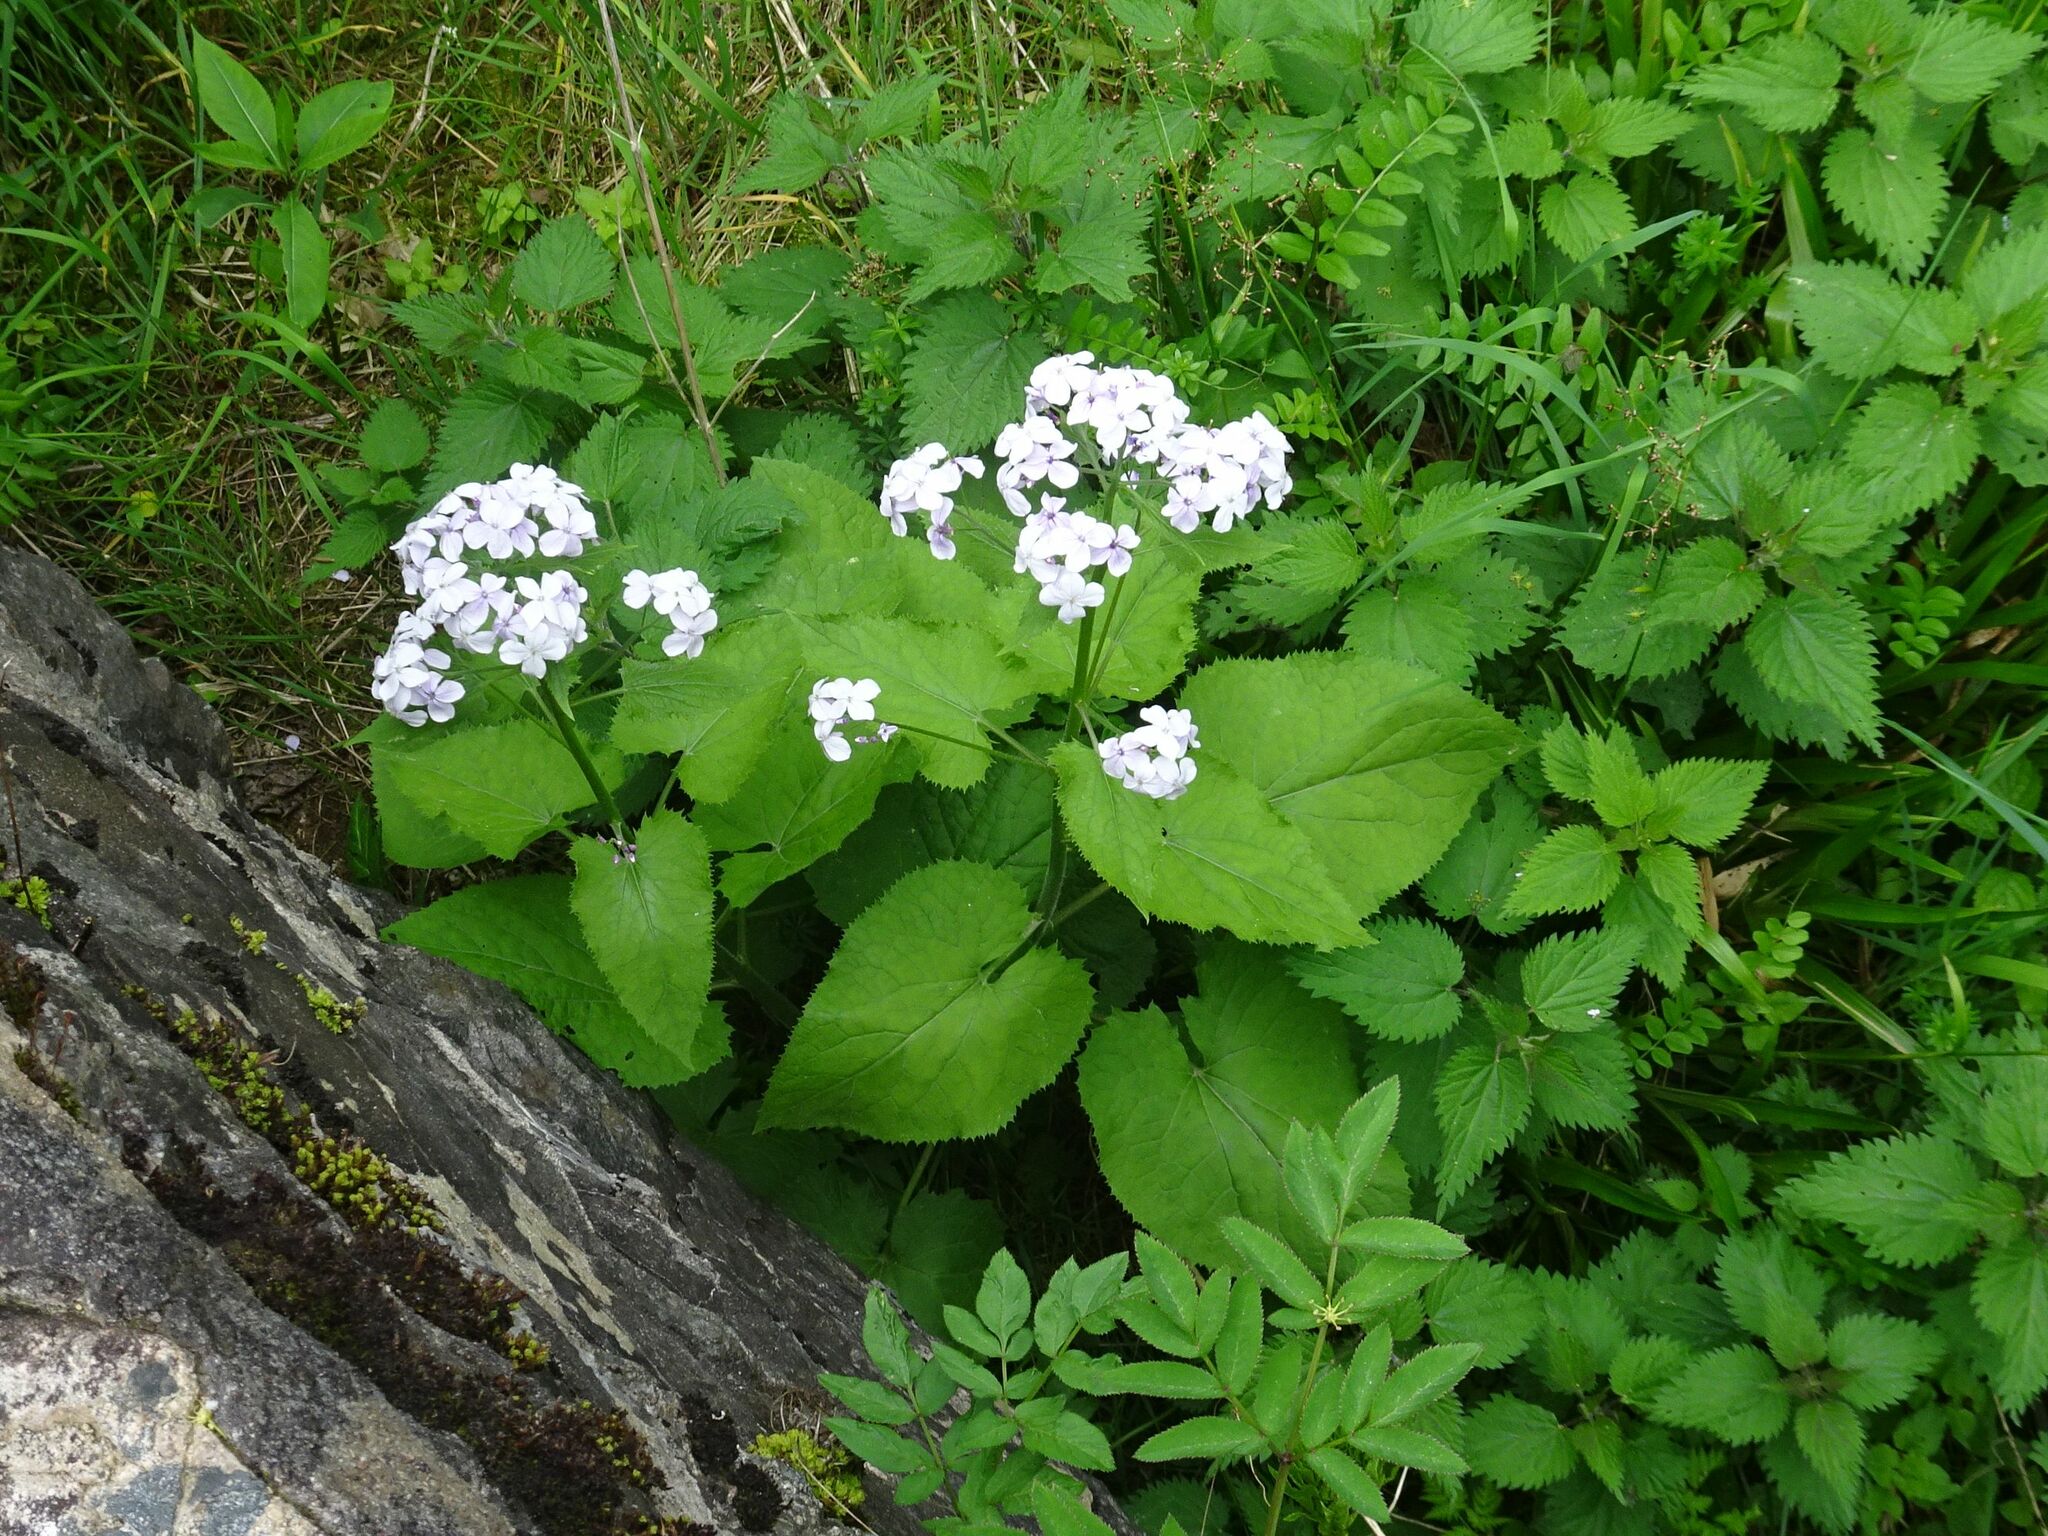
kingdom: Plantae
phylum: Tracheophyta
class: Magnoliopsida
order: Brassicales
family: Brassicaceae
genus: Lunaria
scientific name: Lunaria rediviva
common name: Perennial honesty
